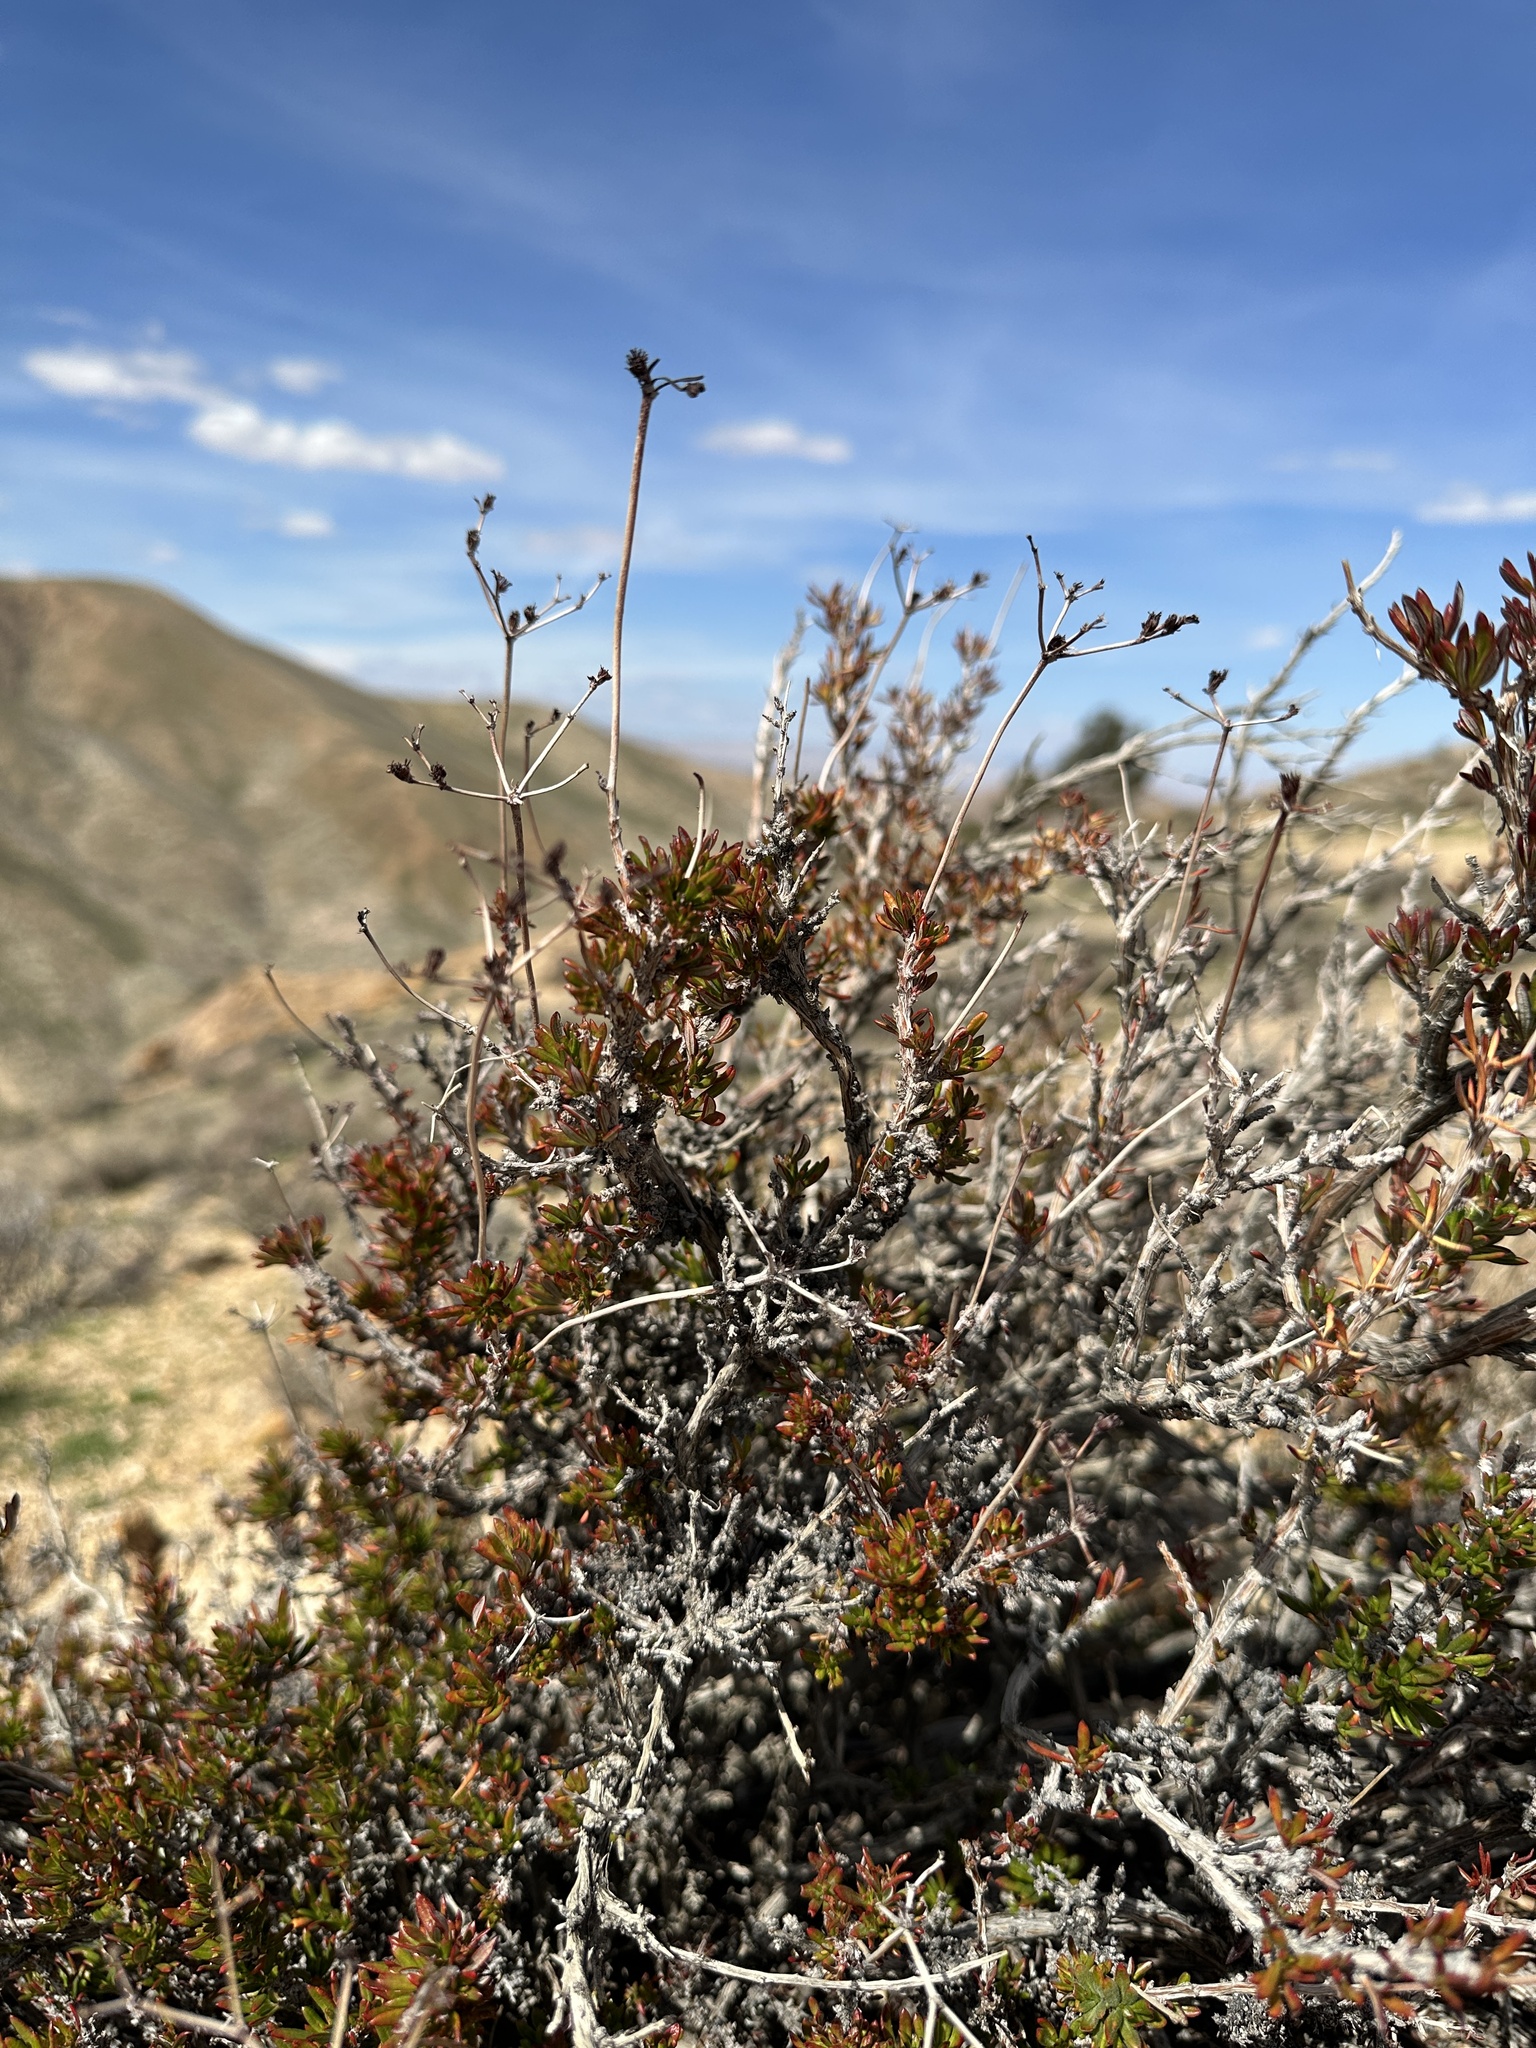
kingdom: Plantae
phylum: Tracheophyta
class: Magnoliopsida
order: Caryophyllales
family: Polygonaceae
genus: Eriogonum
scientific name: Eriogonum fasciculatum
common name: California wild buckwheat
